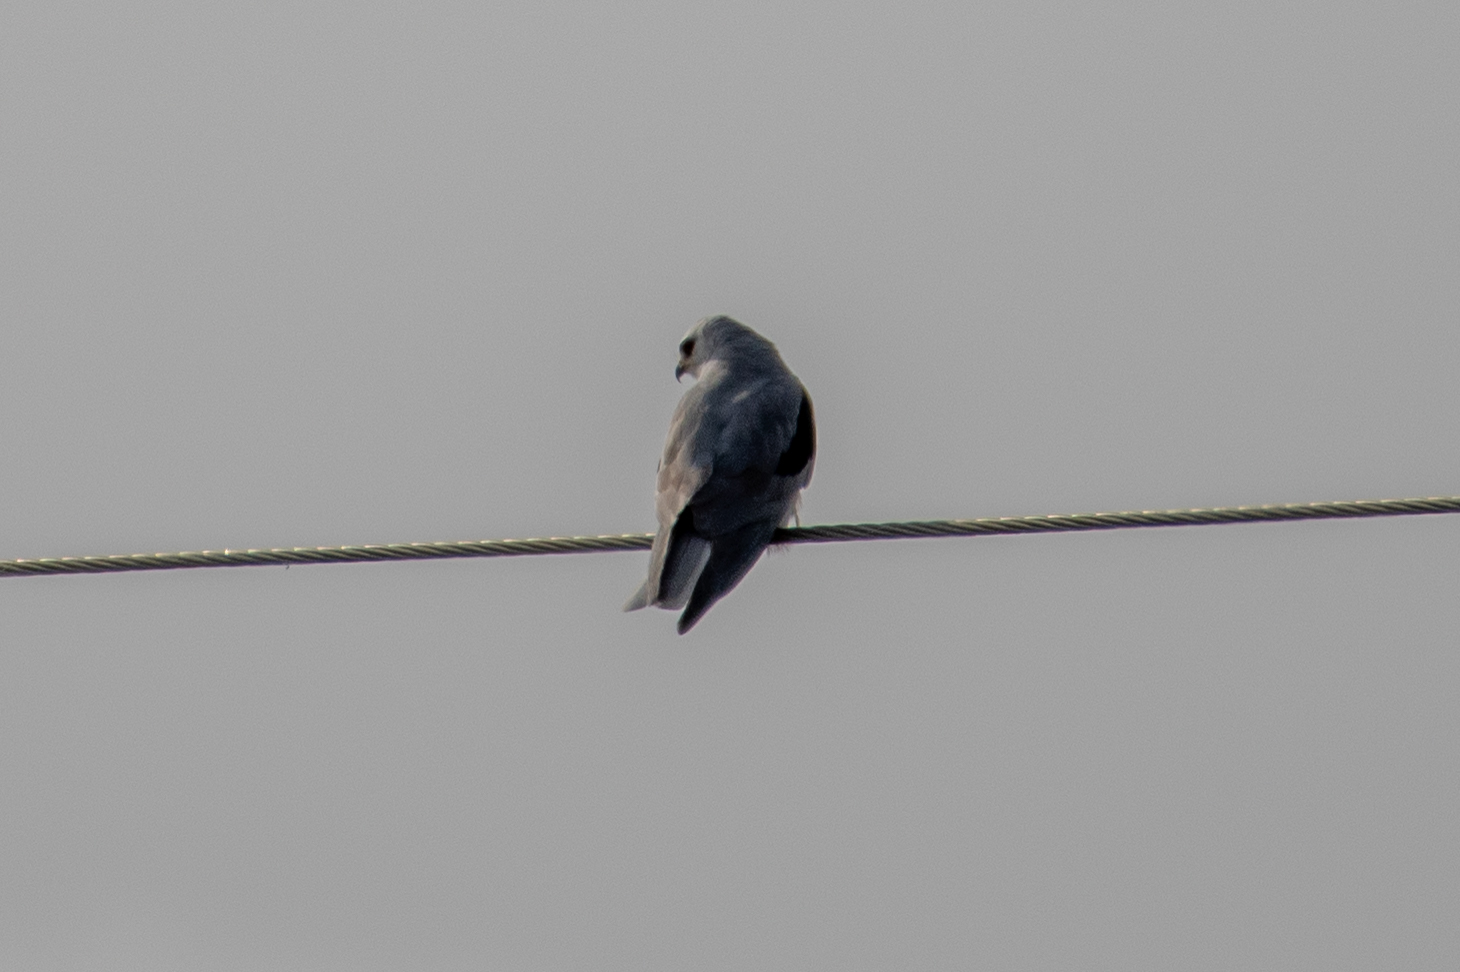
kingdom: Animalia
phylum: Chordata
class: Aves
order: Accipitriformes
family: Accipitridae
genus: Elanus
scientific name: Elanus leucurus
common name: White-tailed kite
